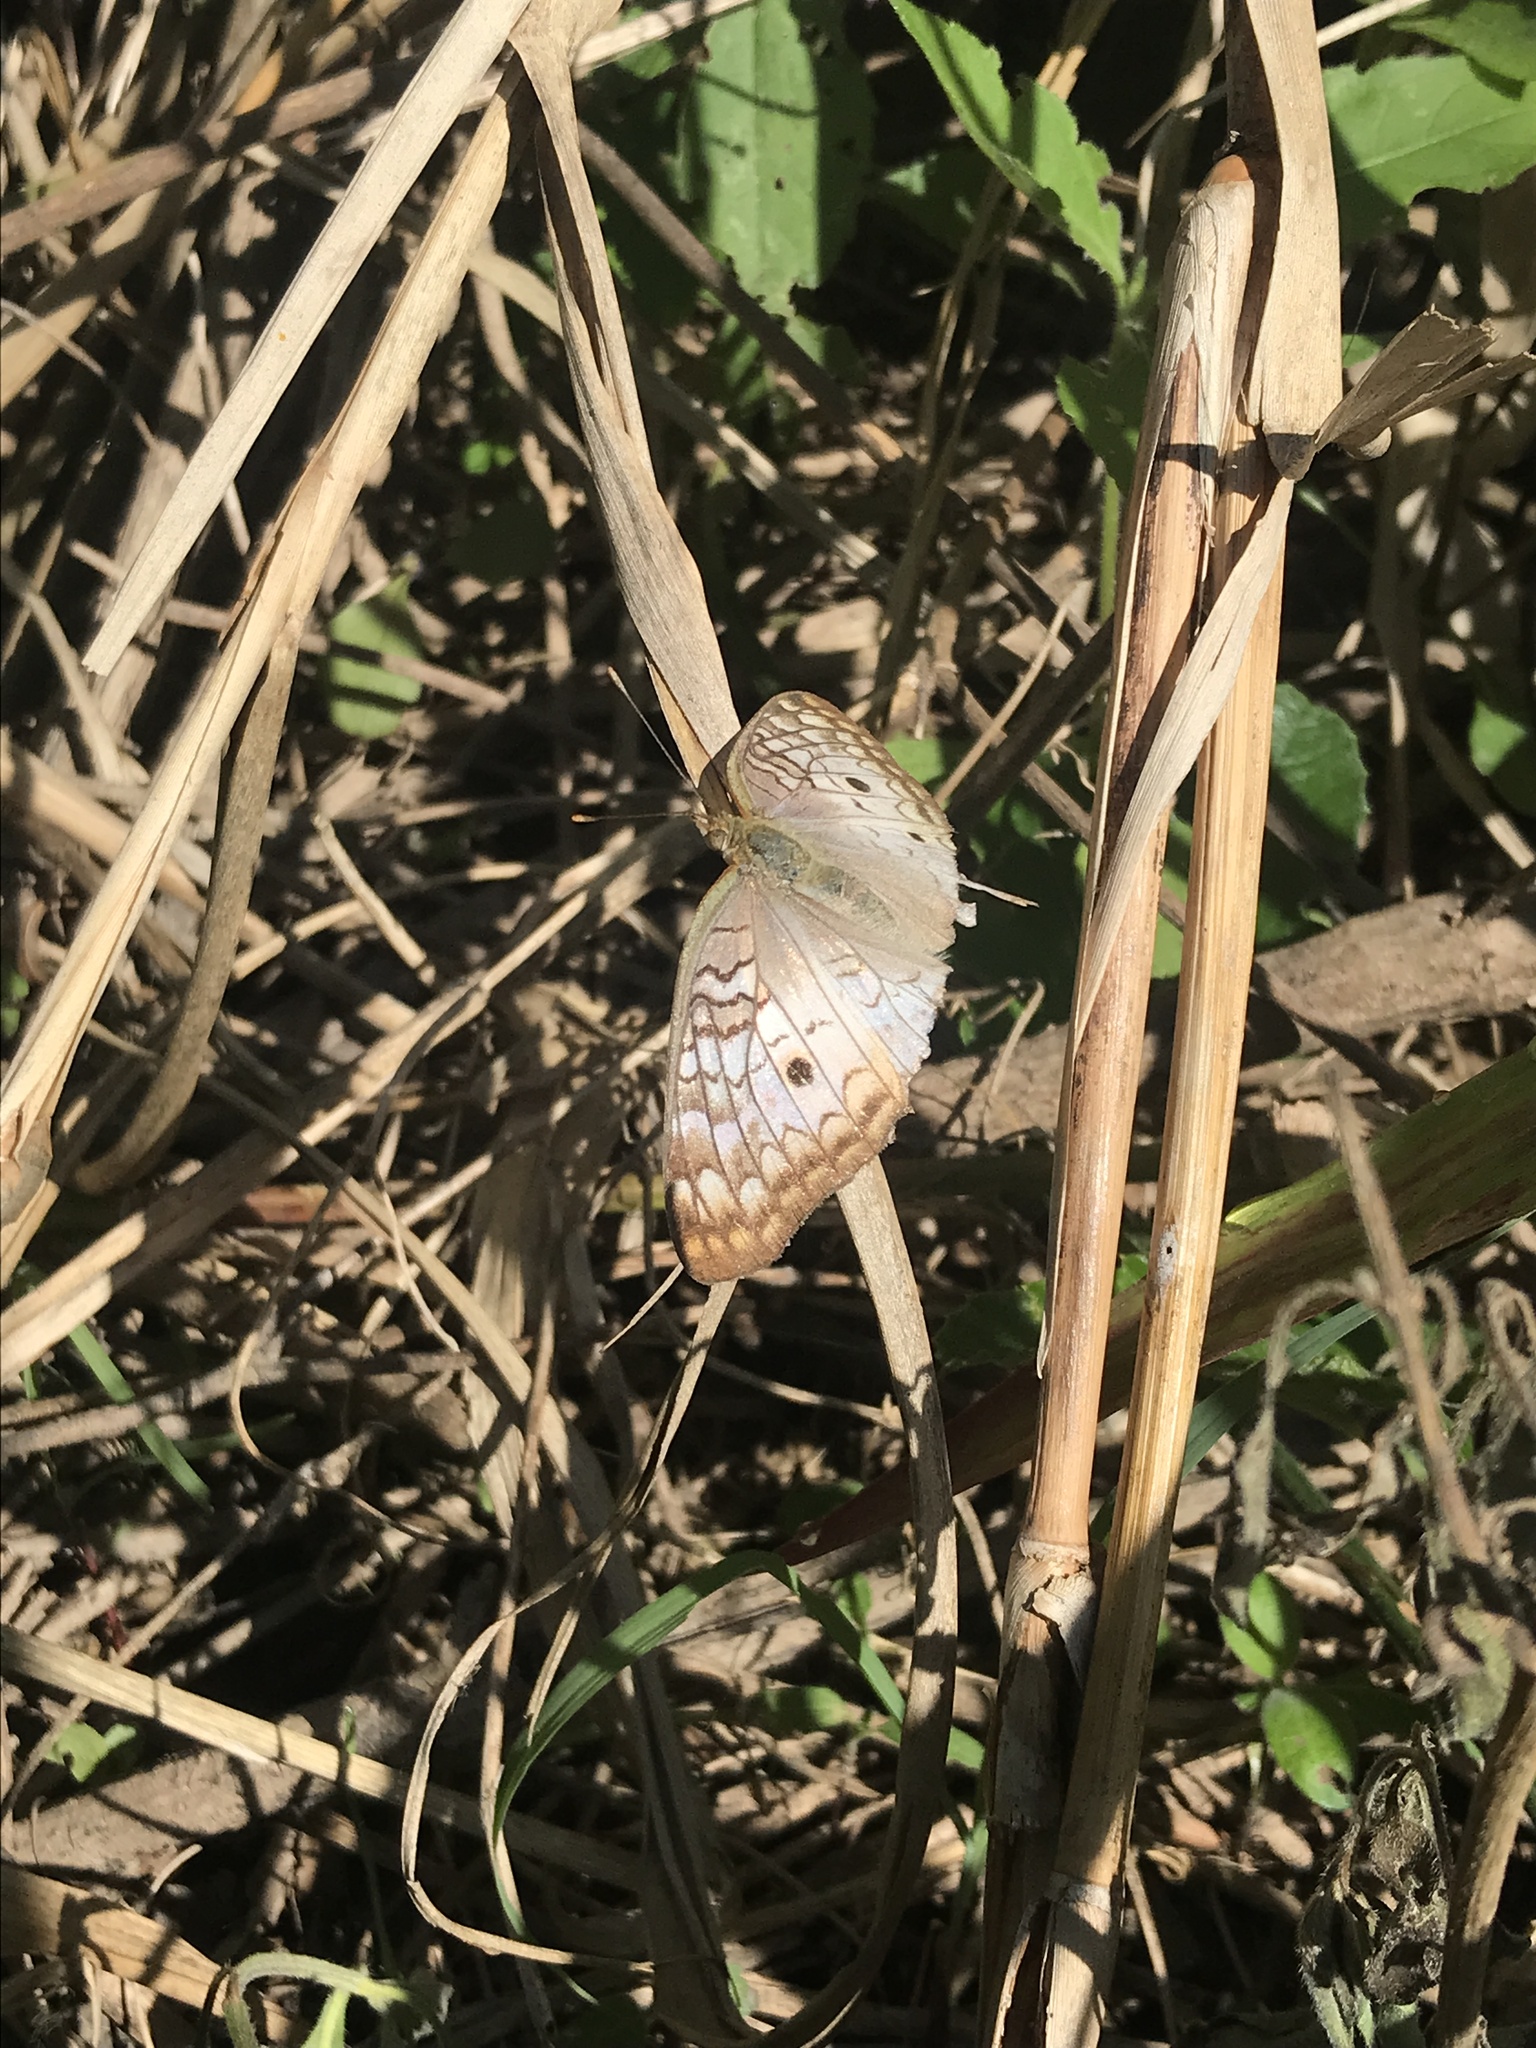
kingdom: Animalia
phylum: Arthropoda
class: Insecta
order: Lepidoptera
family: Nymphalidae
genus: Anartia
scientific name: Anartia jatrophae
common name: White peacock
